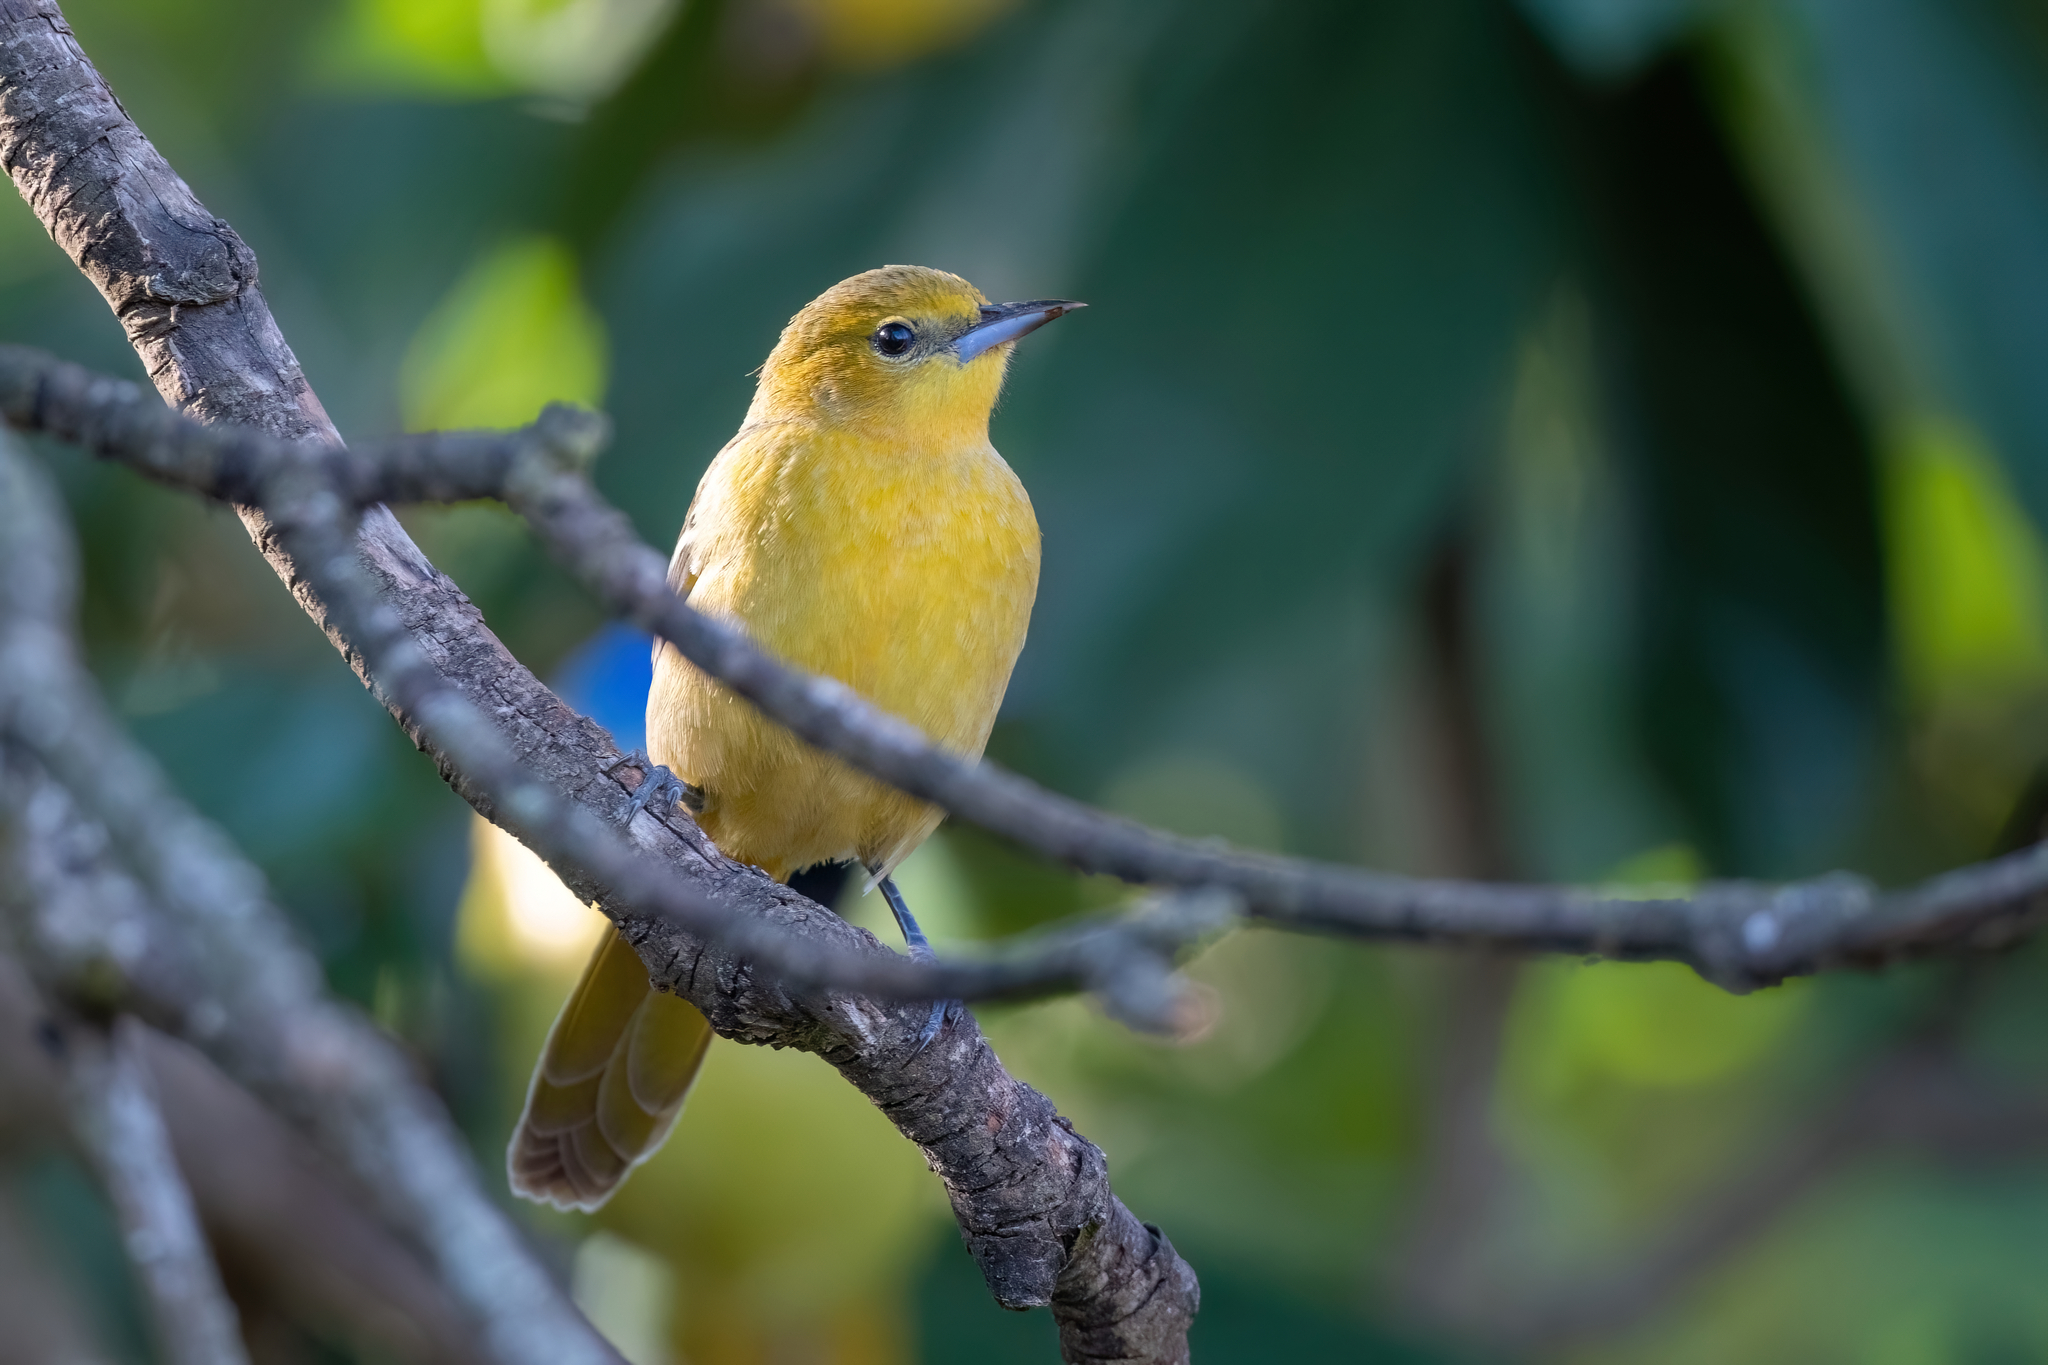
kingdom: Animalia
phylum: Chordata
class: Aves
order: Passeriformes
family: Icteridae
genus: Icterus
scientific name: Icterus cucullatus
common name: Hooded oriole
